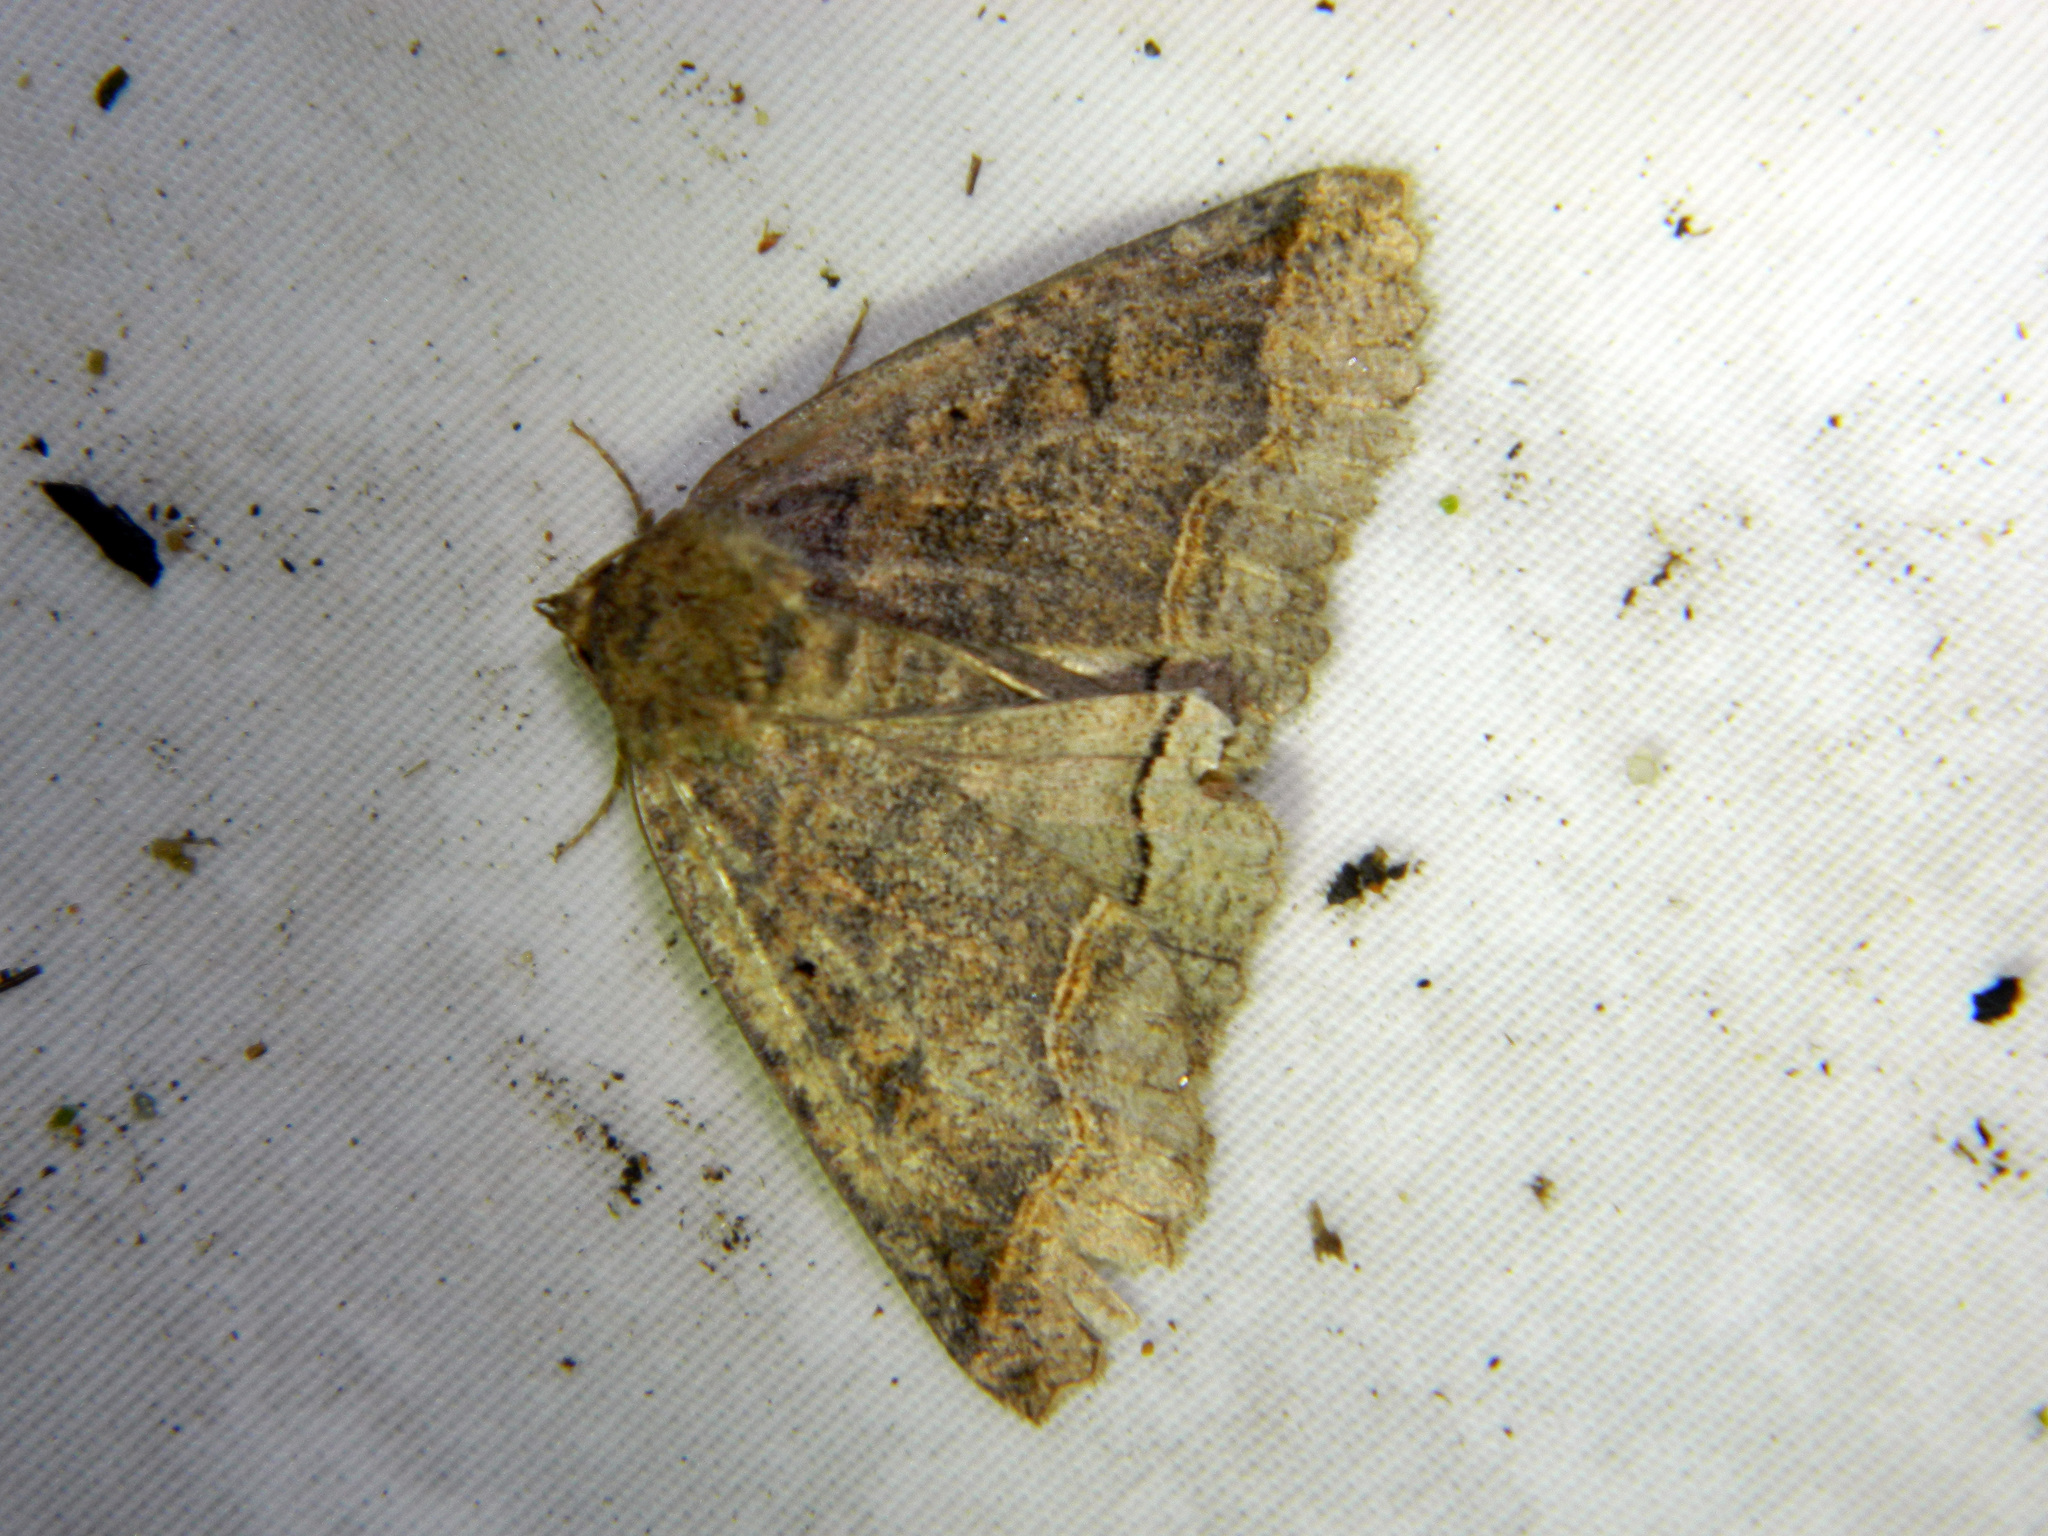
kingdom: Animalia
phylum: Arthropoda
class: Insecta
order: Lepidoptera
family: Erebidae
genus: Zale
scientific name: Zale unilineata
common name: One-lined zale moth
